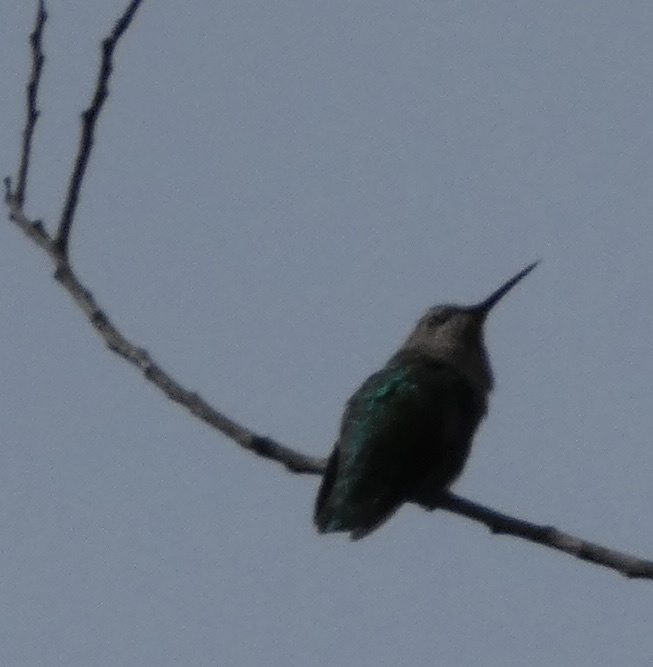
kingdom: Animalia
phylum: Chordata
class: Aves
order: Apodiformes
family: Trochilidae
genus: Calypte
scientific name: Calypte anna
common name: Anna's hummingbird
